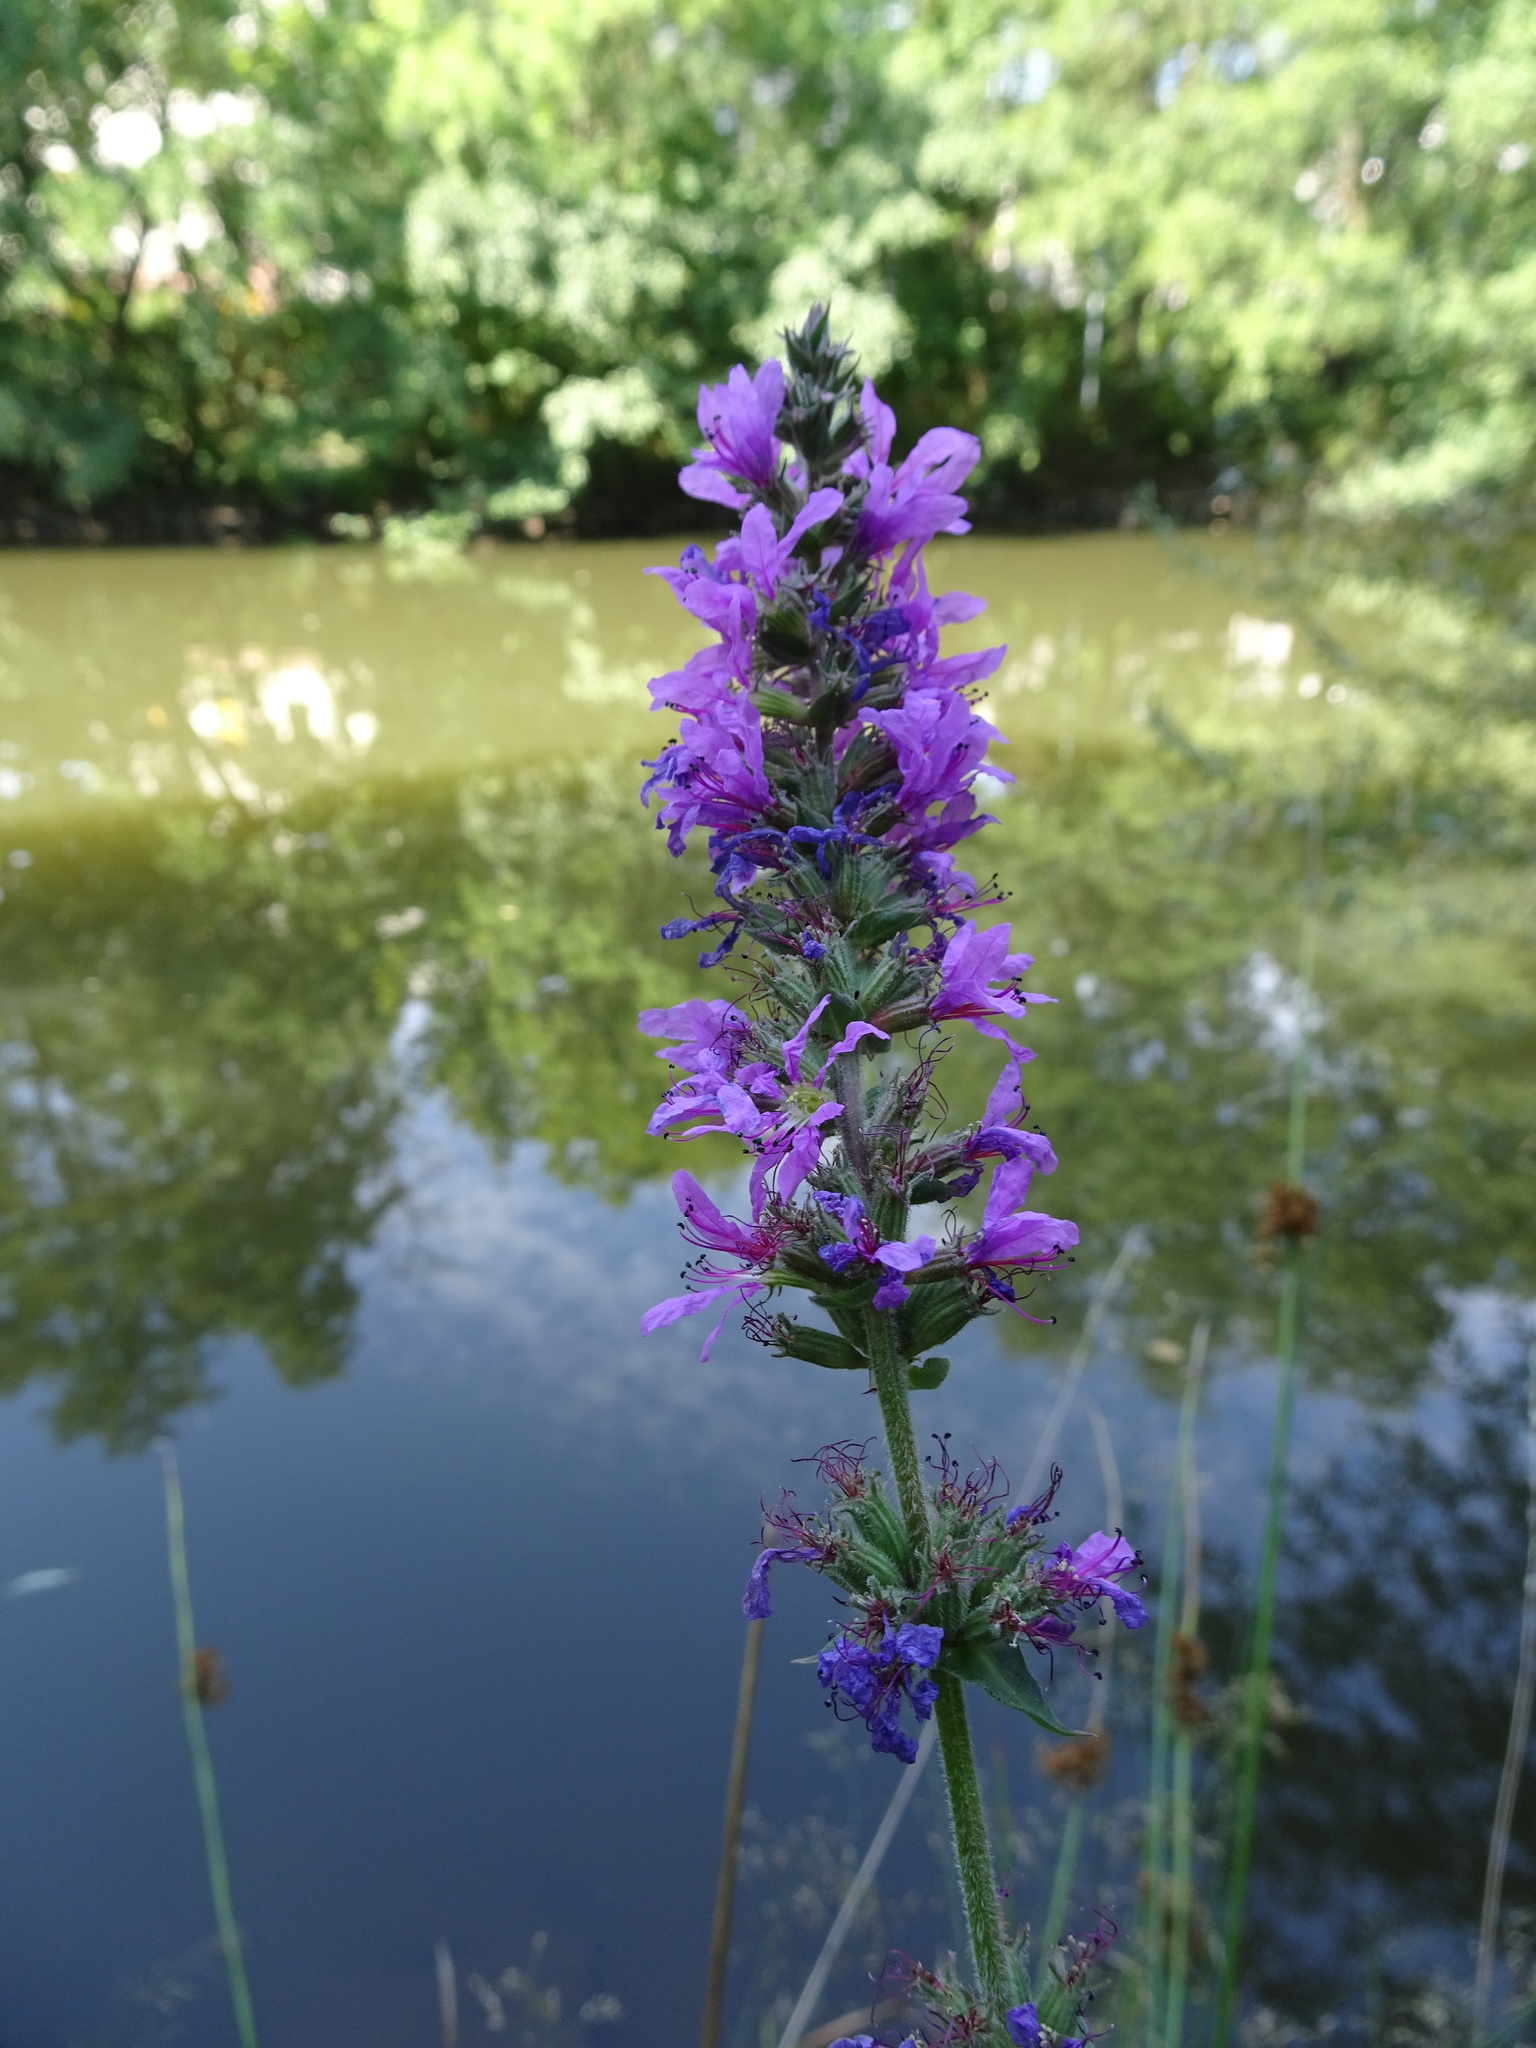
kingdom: Plantae
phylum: Tracheophyta
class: Magnoliopsida
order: Myrtales
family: Lythraceae
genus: Lythrum
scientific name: Lythrum salicaria
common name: Purple loosestrife
